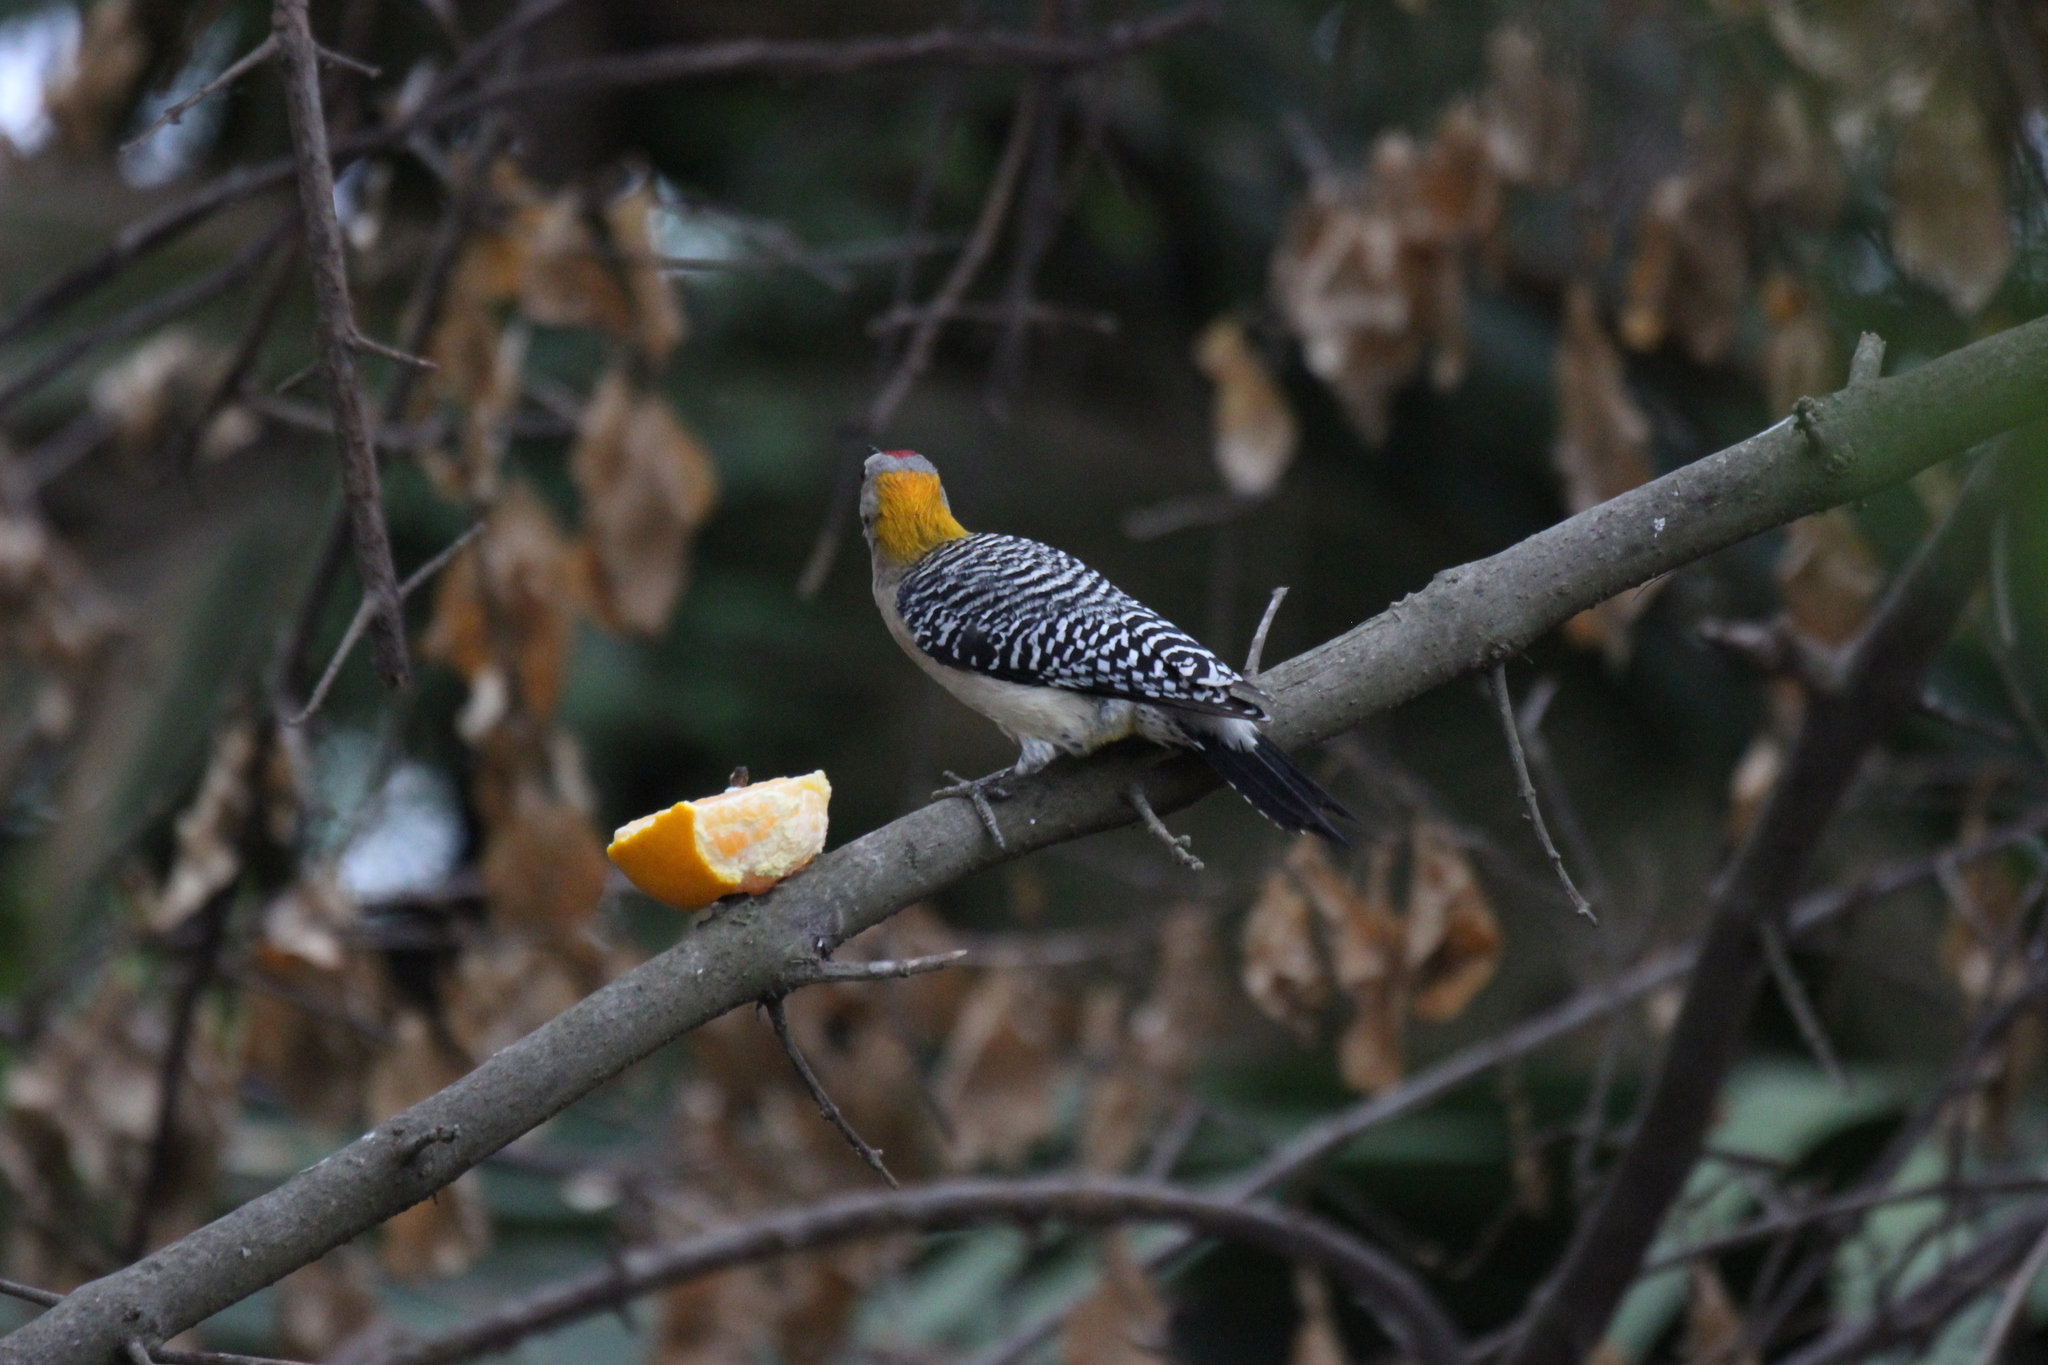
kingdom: Animalia
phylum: Chordata
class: Aves
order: Piciformes
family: Picidae
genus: Melanerpes
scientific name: Melanerpes aurifrons
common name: Golden-fronted woodpecker
